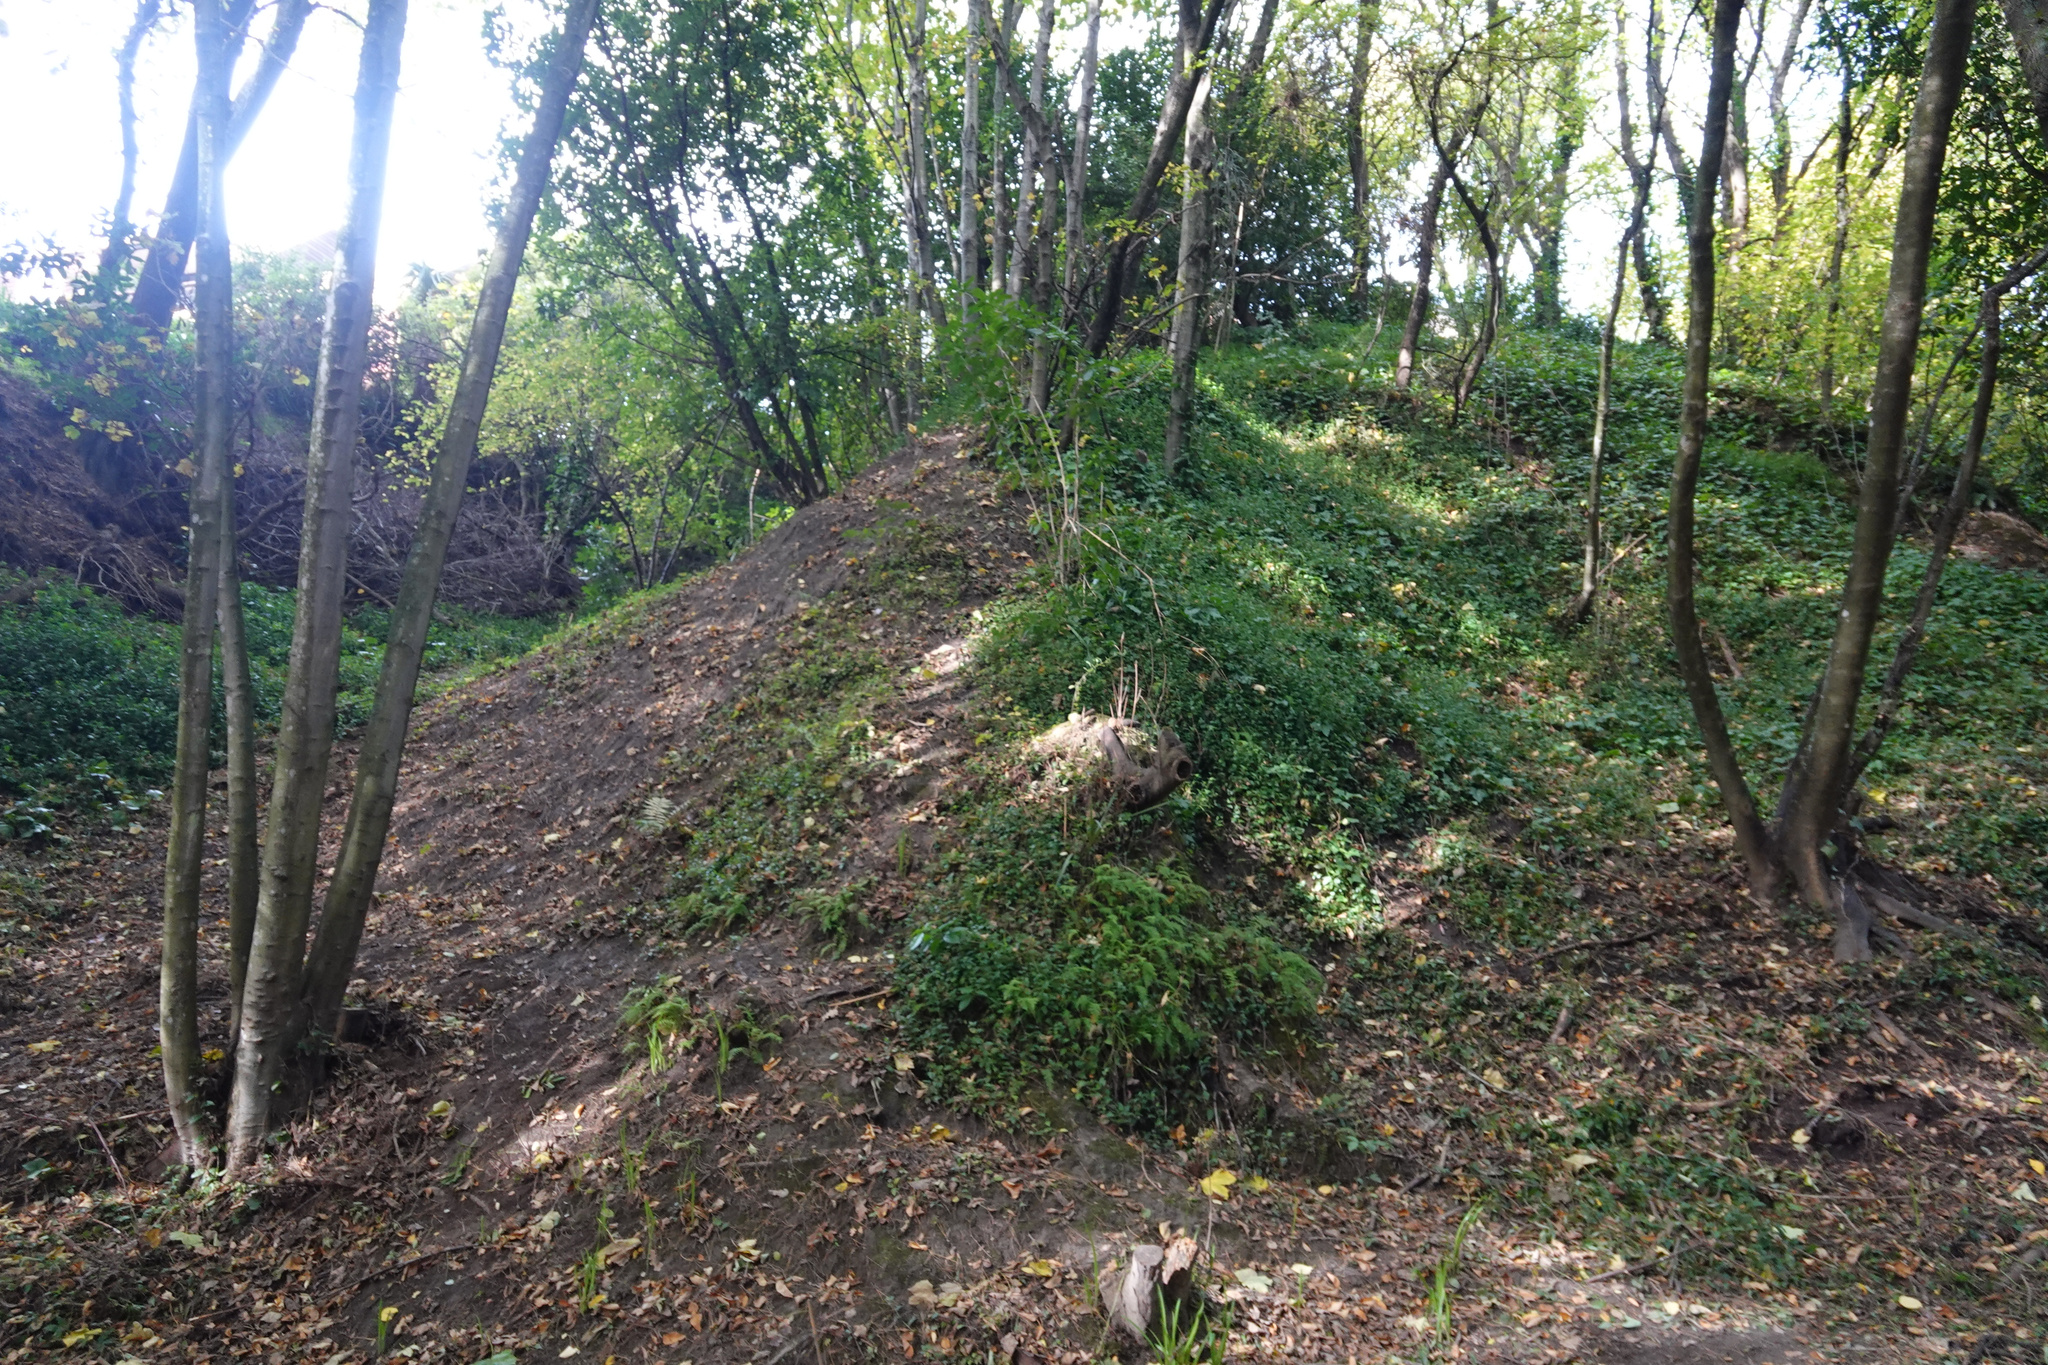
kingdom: Plantae
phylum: Tracheophyta
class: Liliopsida
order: Commelinales
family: Commelinaceae
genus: Tradescantia
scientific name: Tradescantia fluminensis
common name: Wandering-jew
